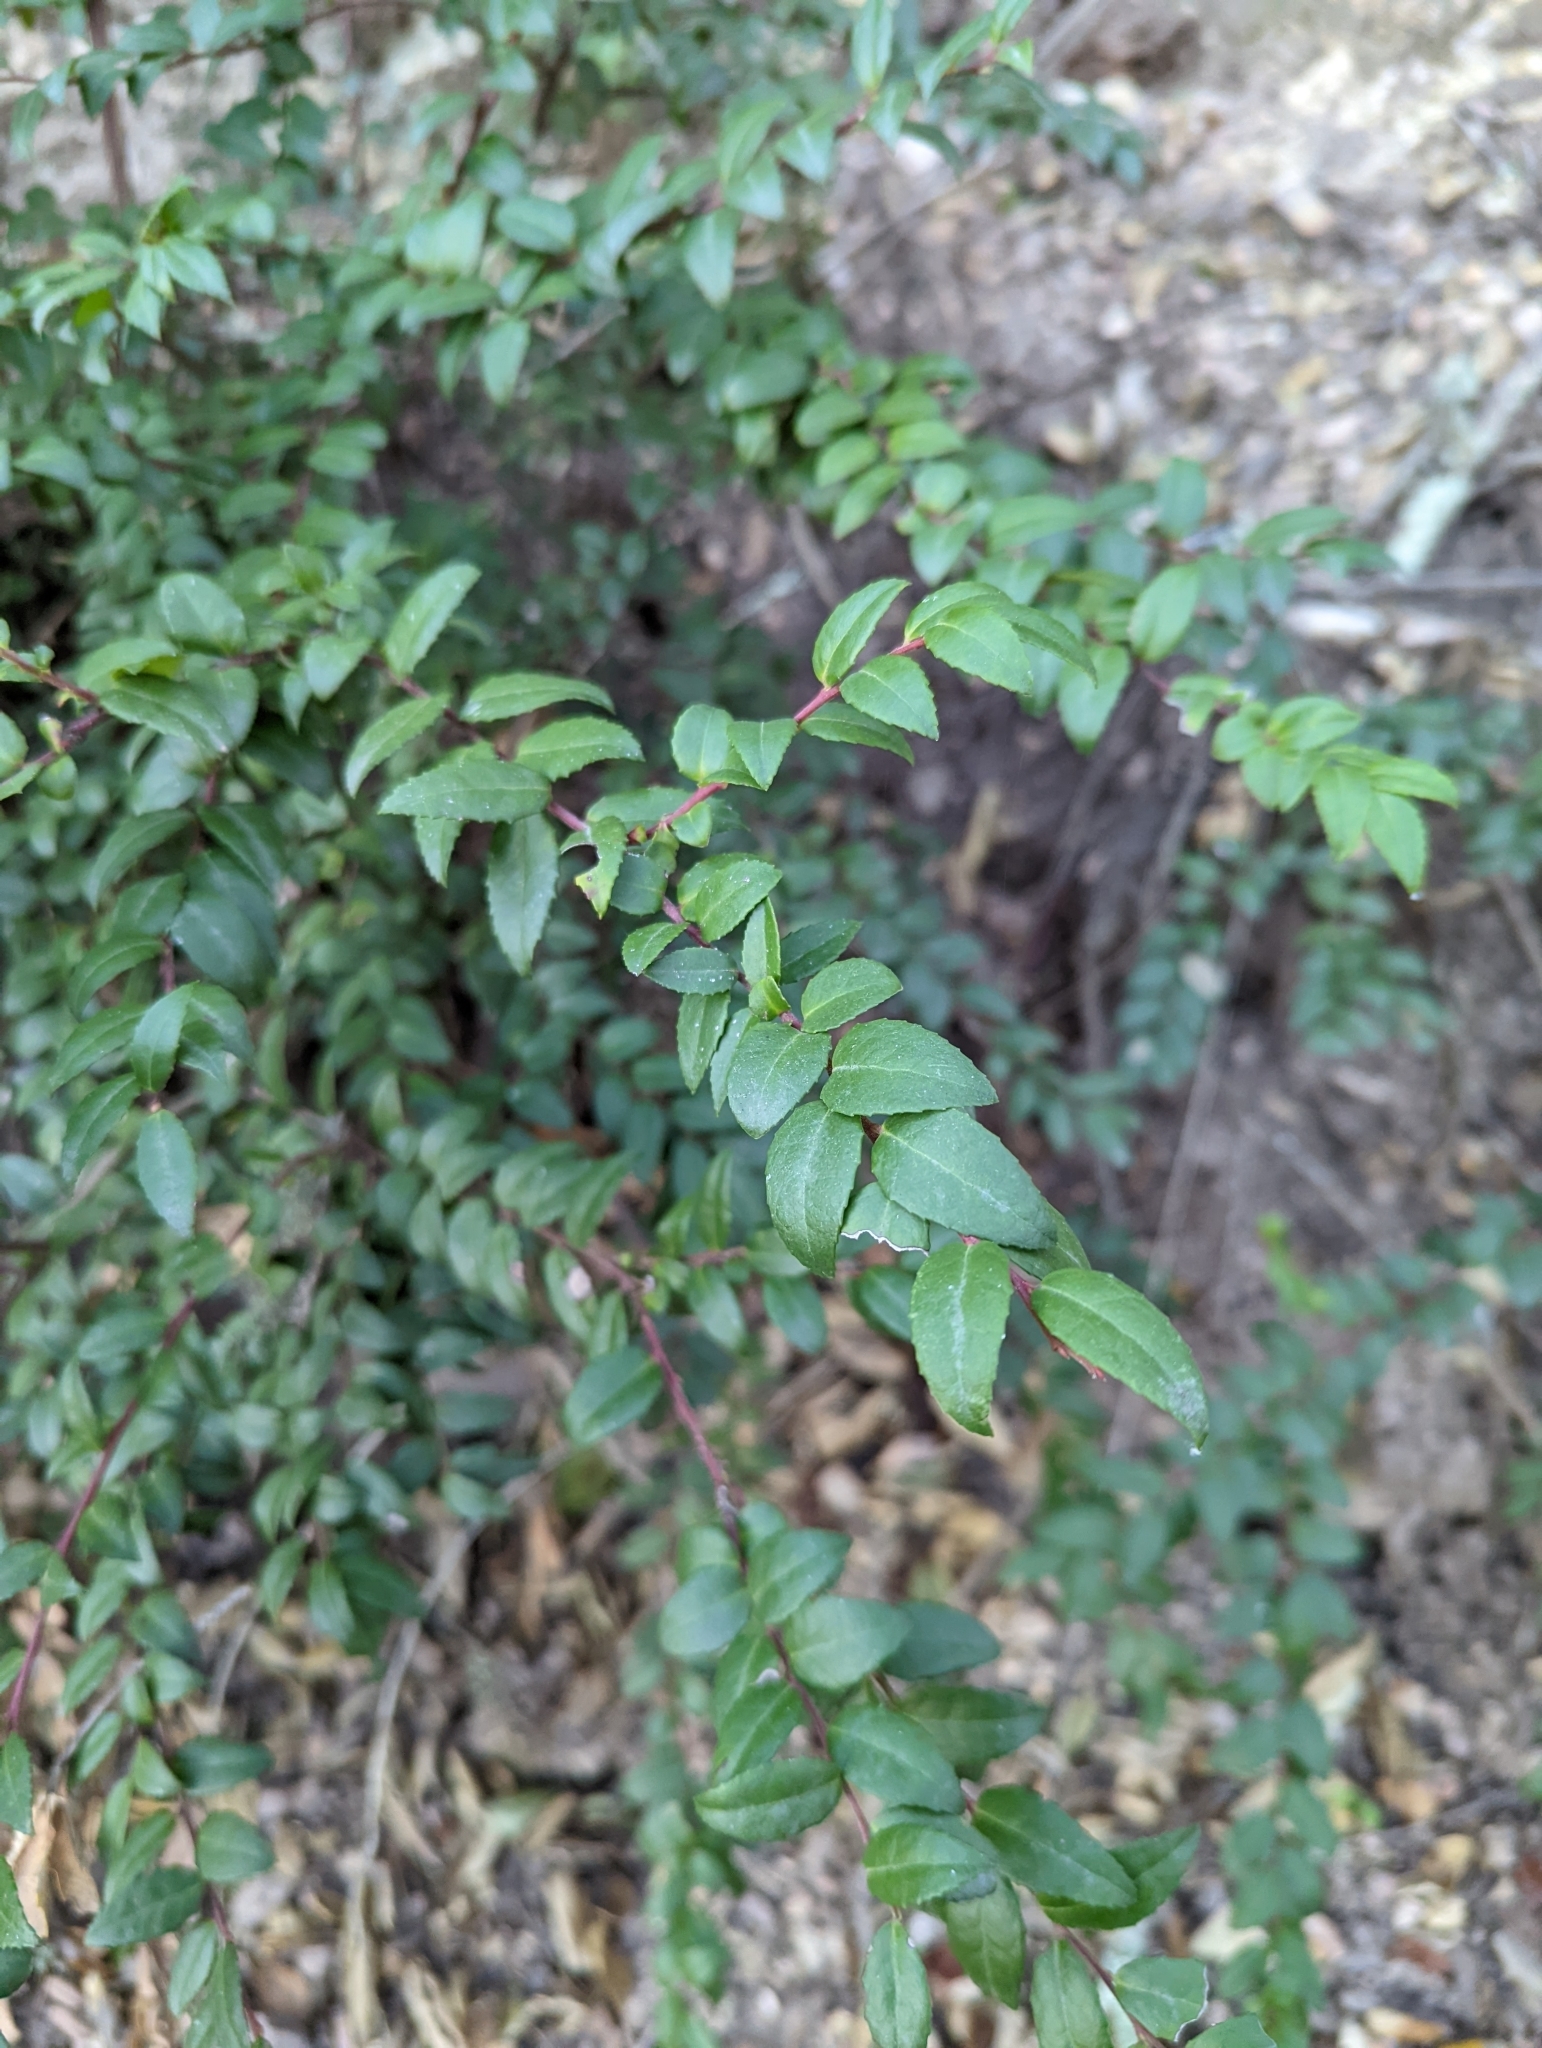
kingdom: Plantae
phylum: Tracheophyta
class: Magnoliopsida
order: Ericales
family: Ericaceae
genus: Vaccinium
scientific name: Vaccinium ovatum
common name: California-huckleberry
